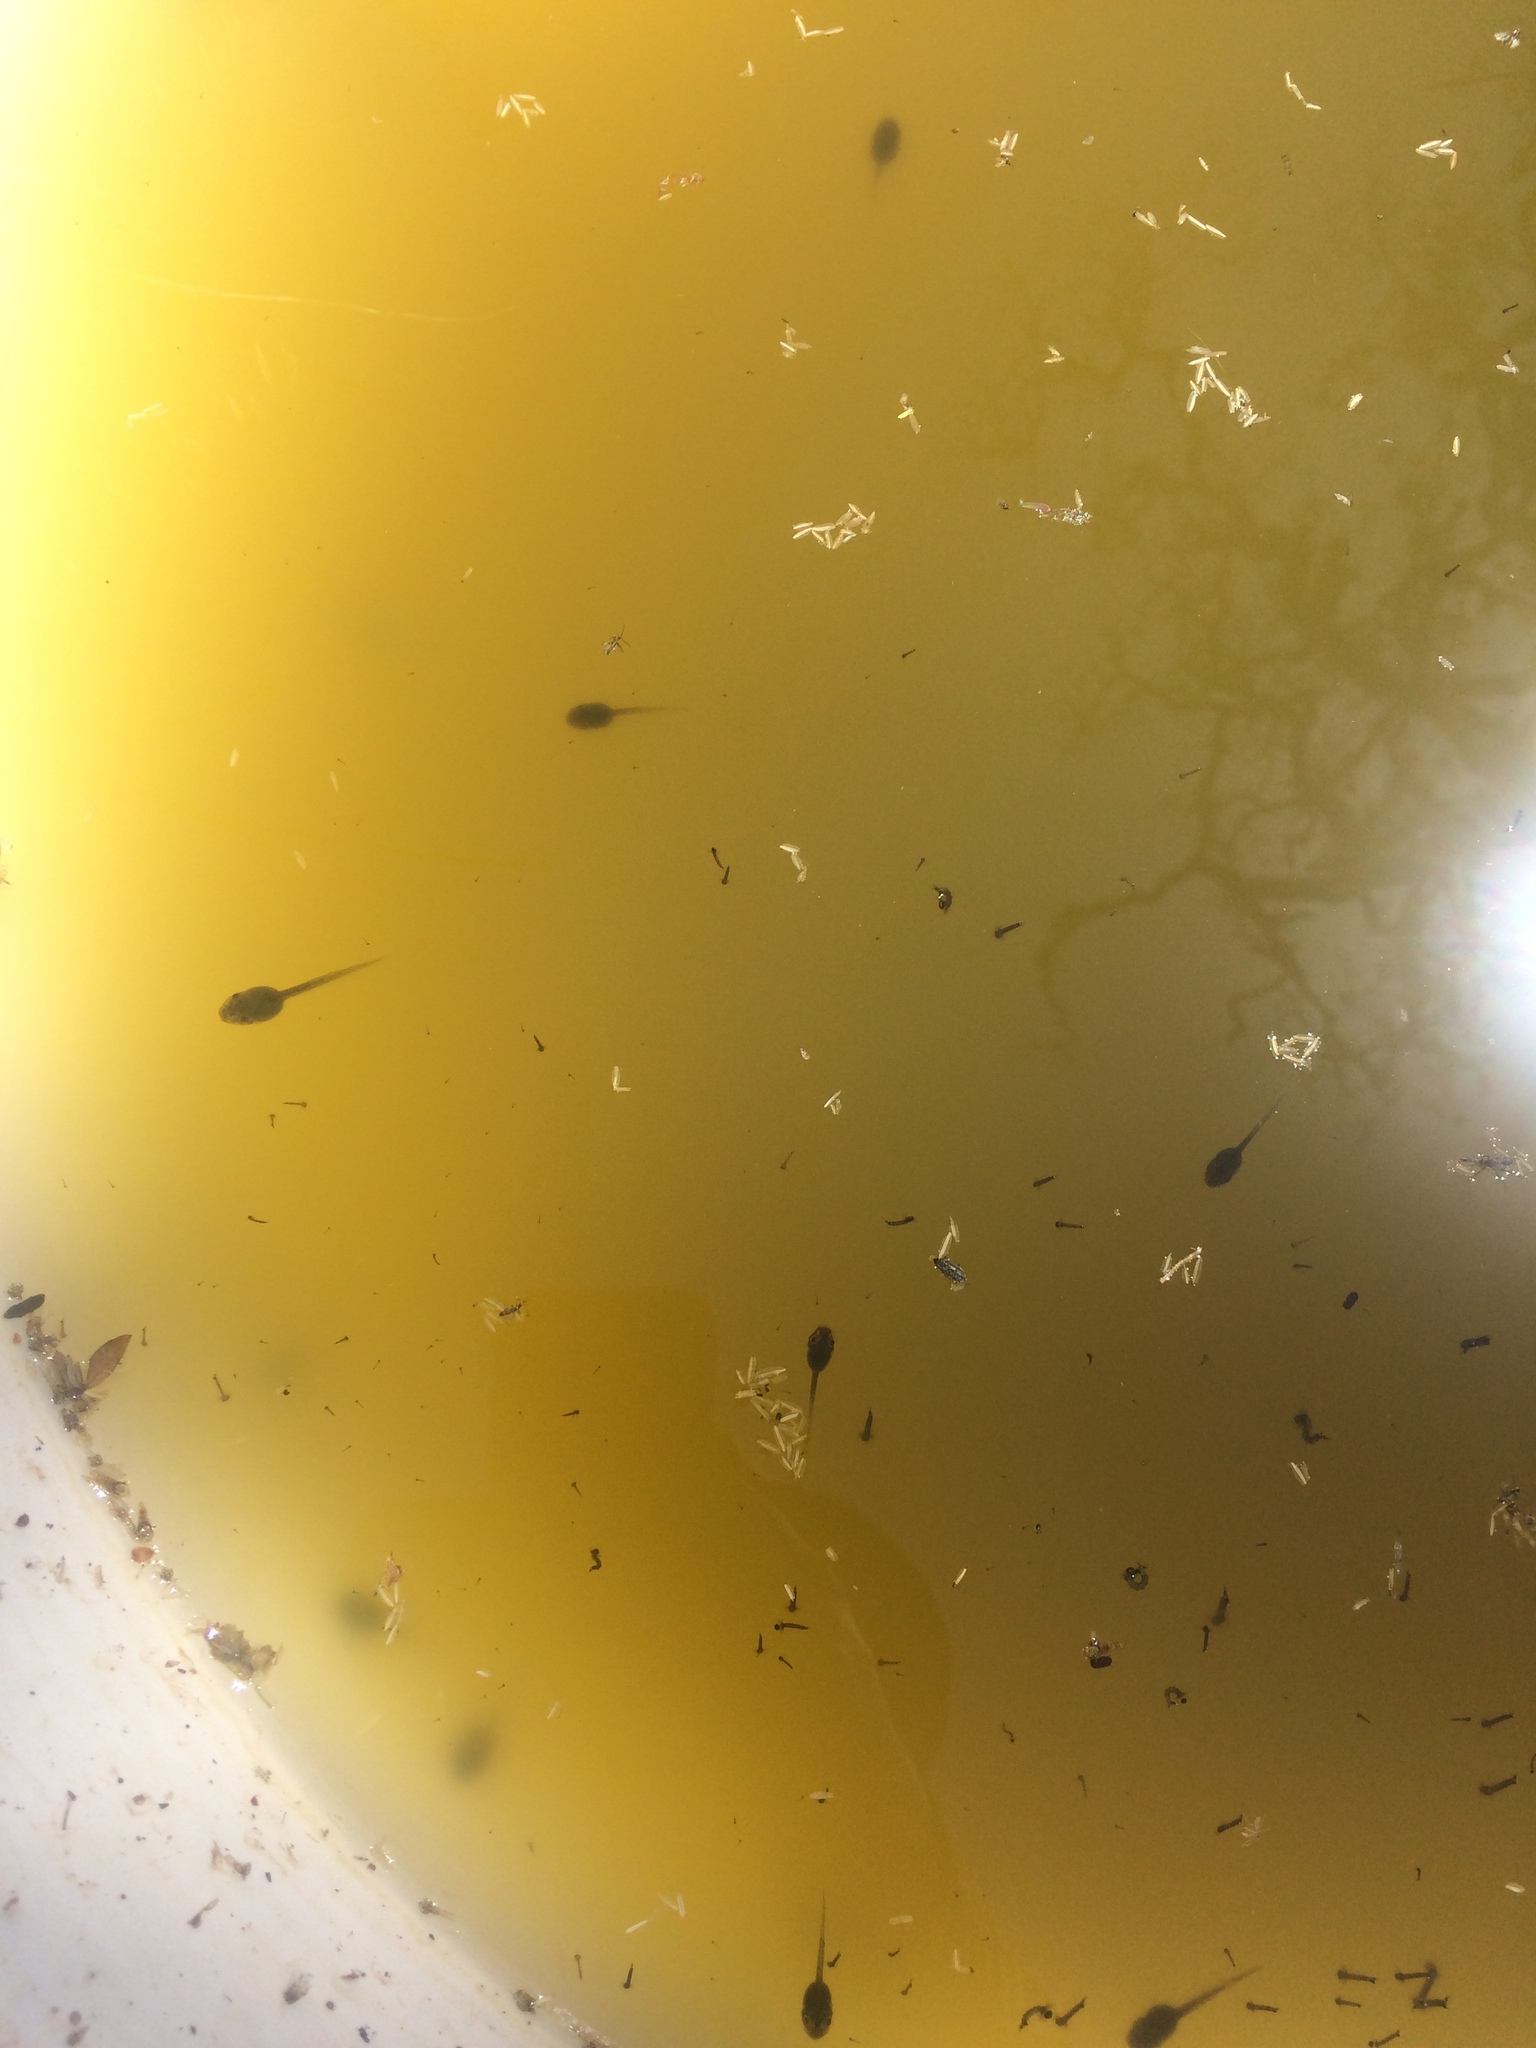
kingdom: Animalia
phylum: Chordata
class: Amphibia
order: Anura
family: Hylidae
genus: Pseudacris
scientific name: Pseudacris regilla
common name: Pacific chorus frog
